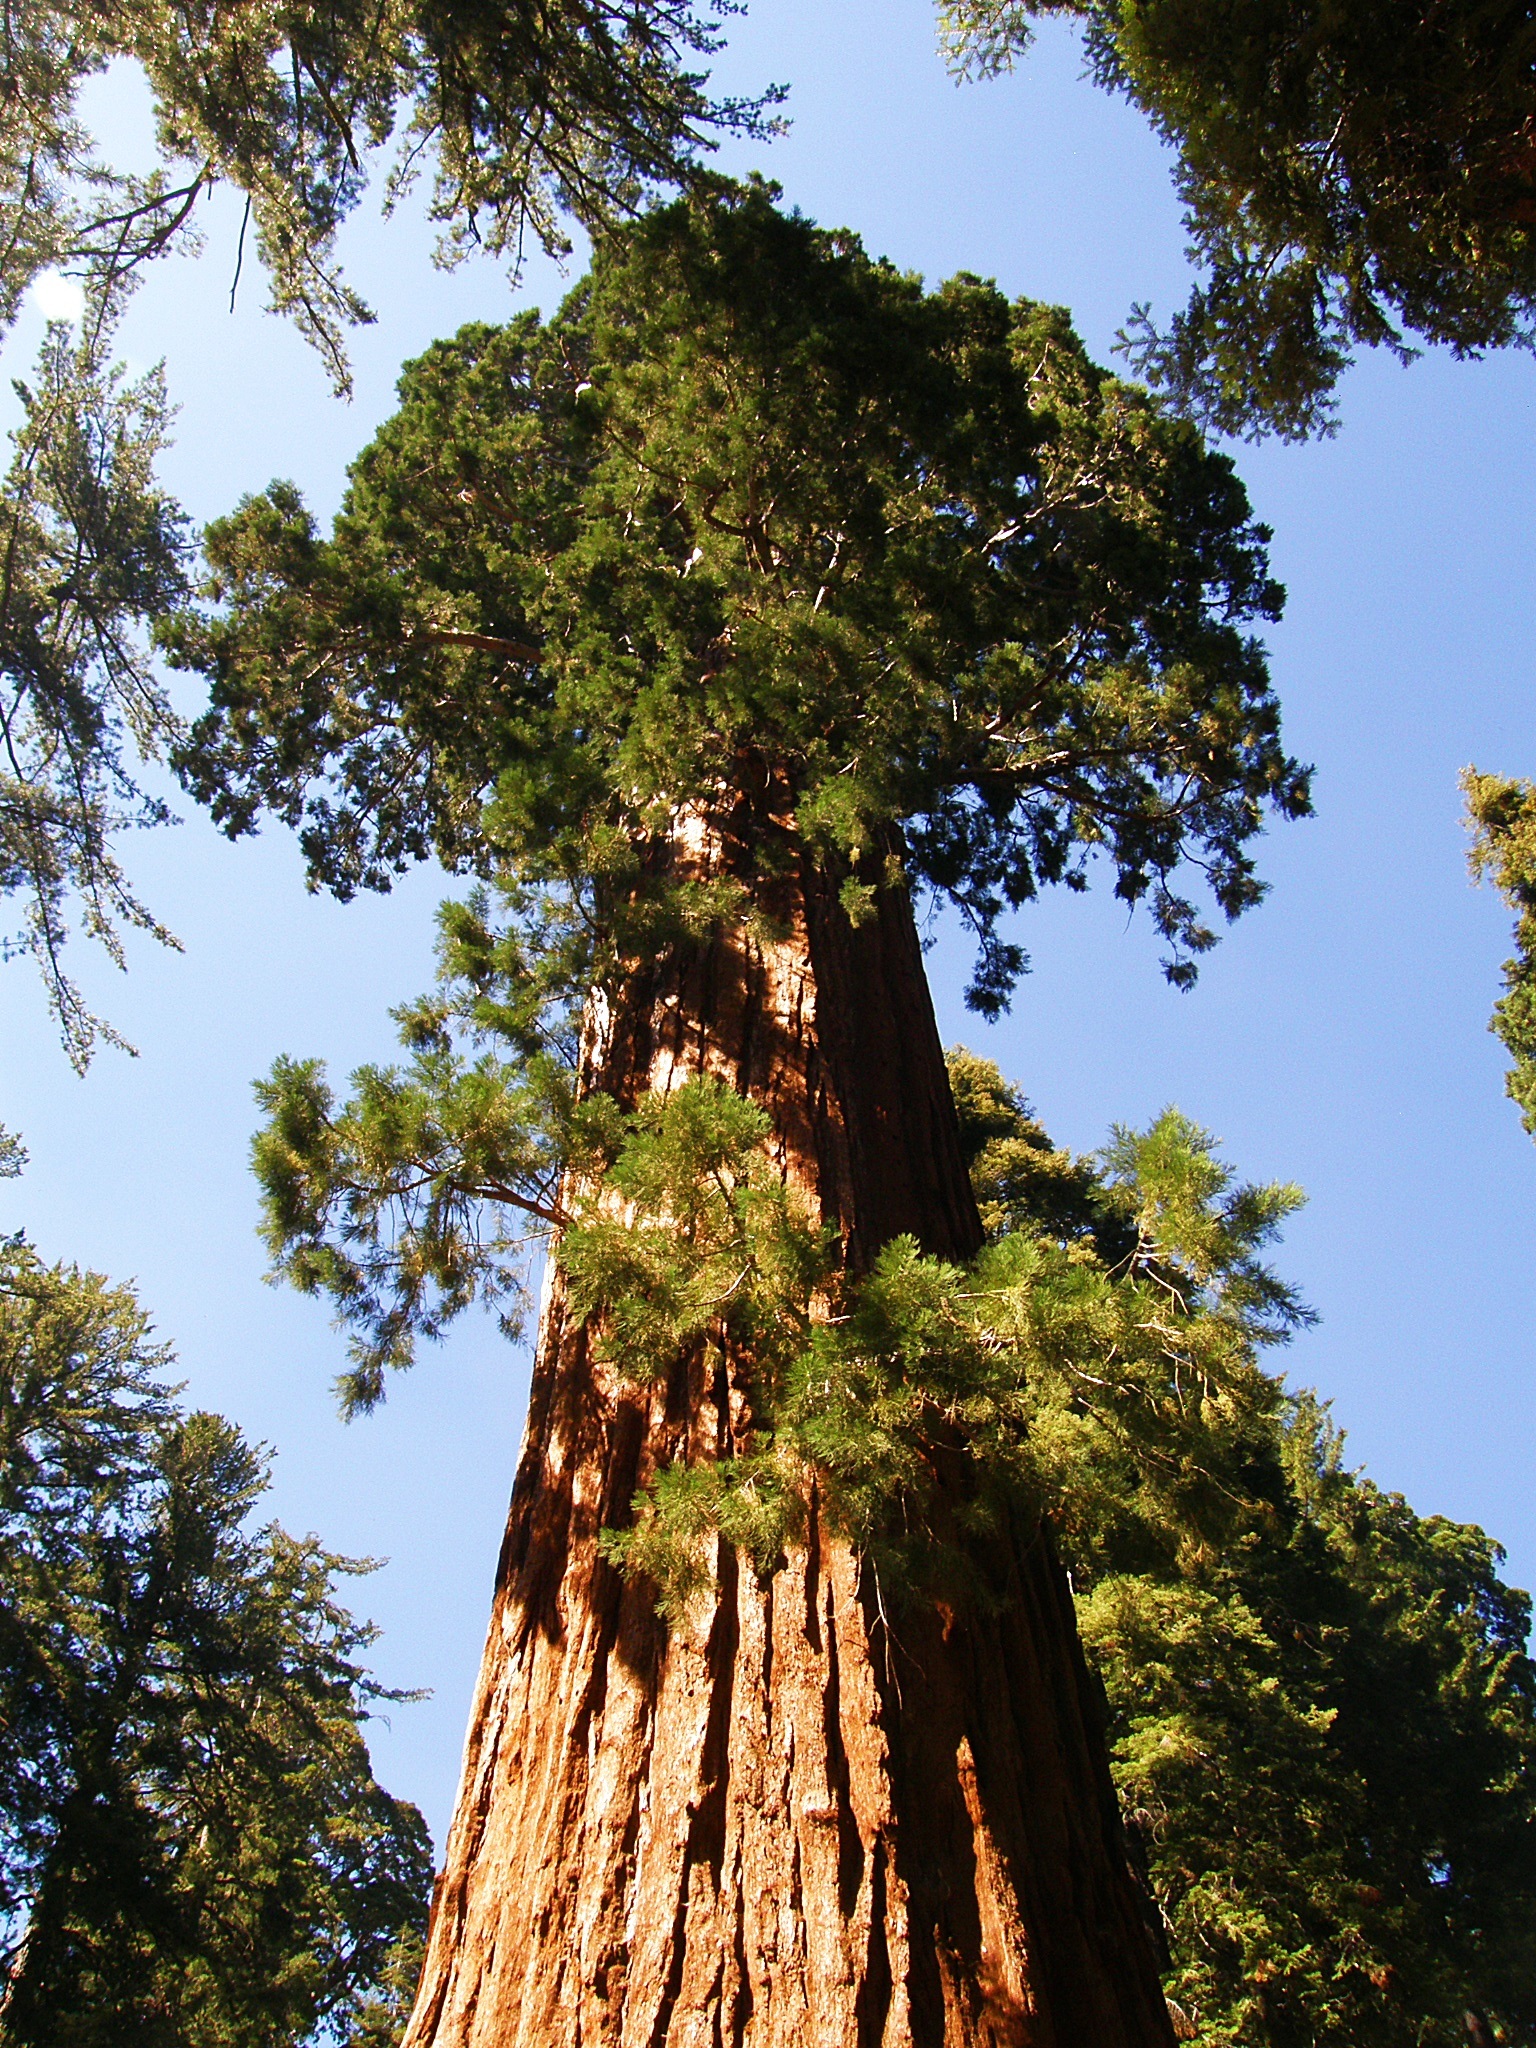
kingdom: Plantae
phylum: Tracheophyta
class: Pinopsida
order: Pinales
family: Cupressaceae
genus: Sequoiadendron
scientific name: Sequoiadendron giganteum
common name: Wellingtonia
